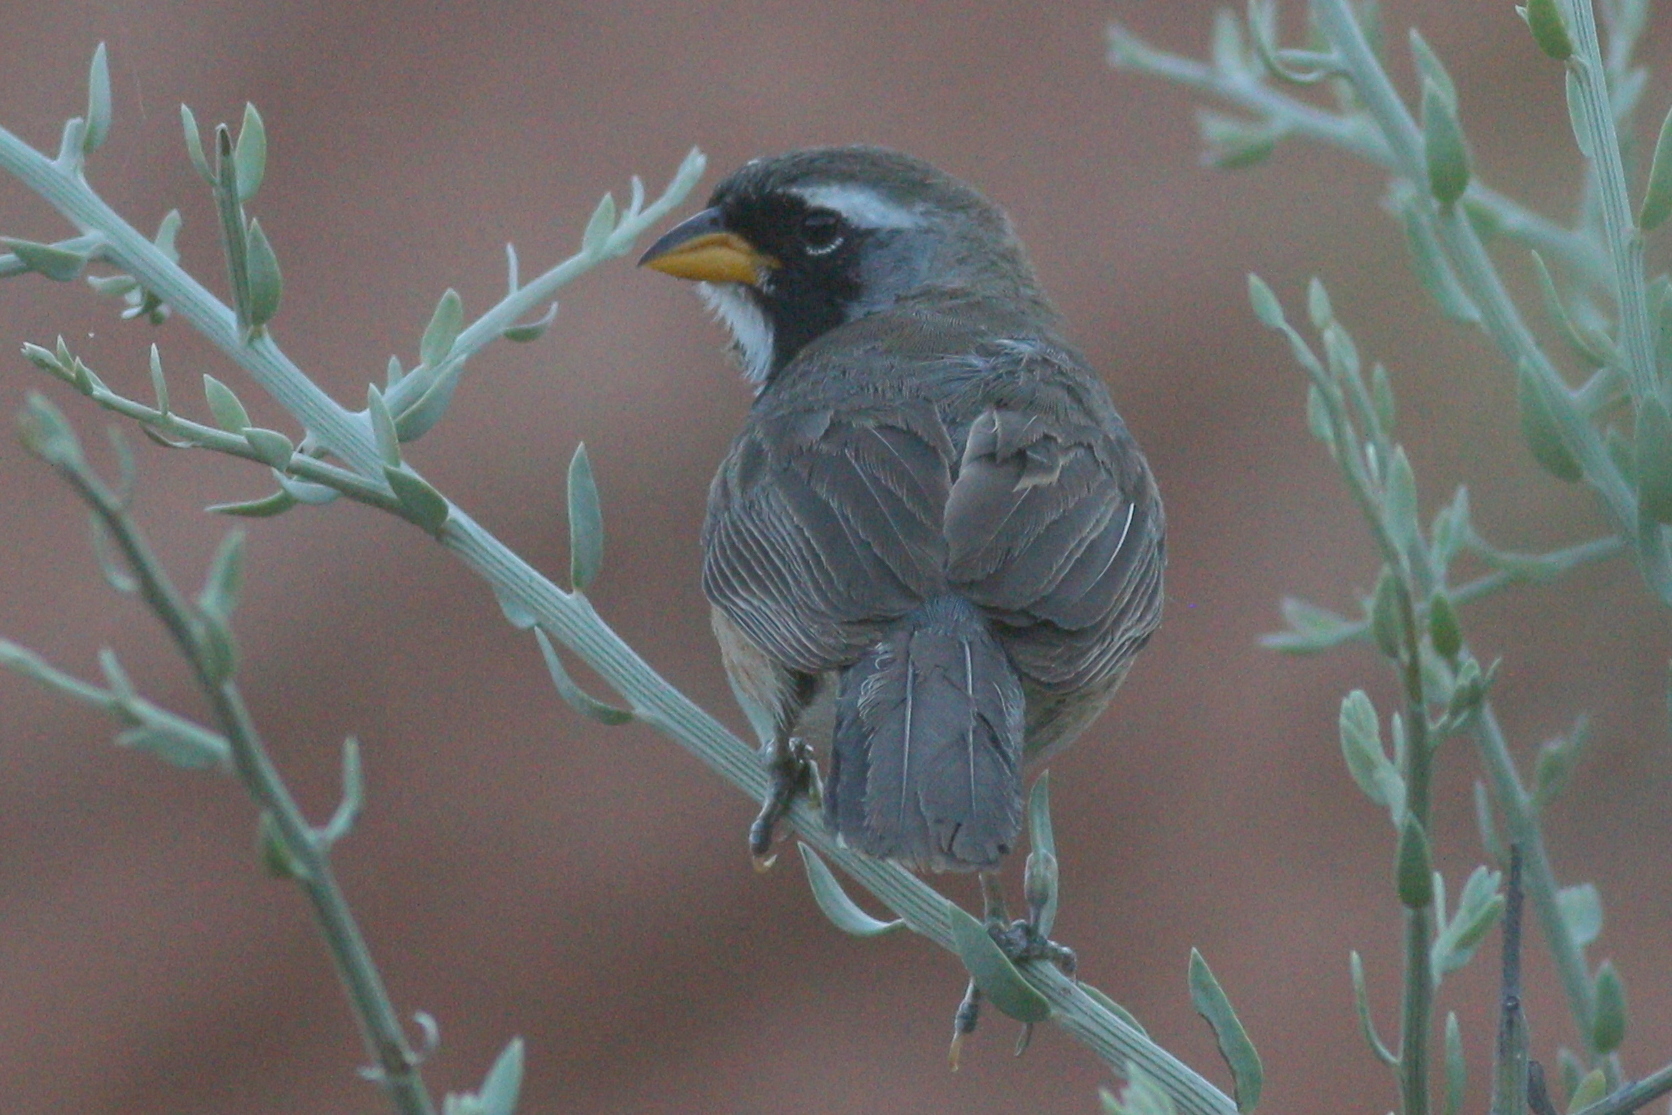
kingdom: Animalia
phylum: Chordata
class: Aves
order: Passeriformes
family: Thraupidae
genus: Saltatricula
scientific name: Saltatricula multicolor
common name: Many-colored chaco finch
